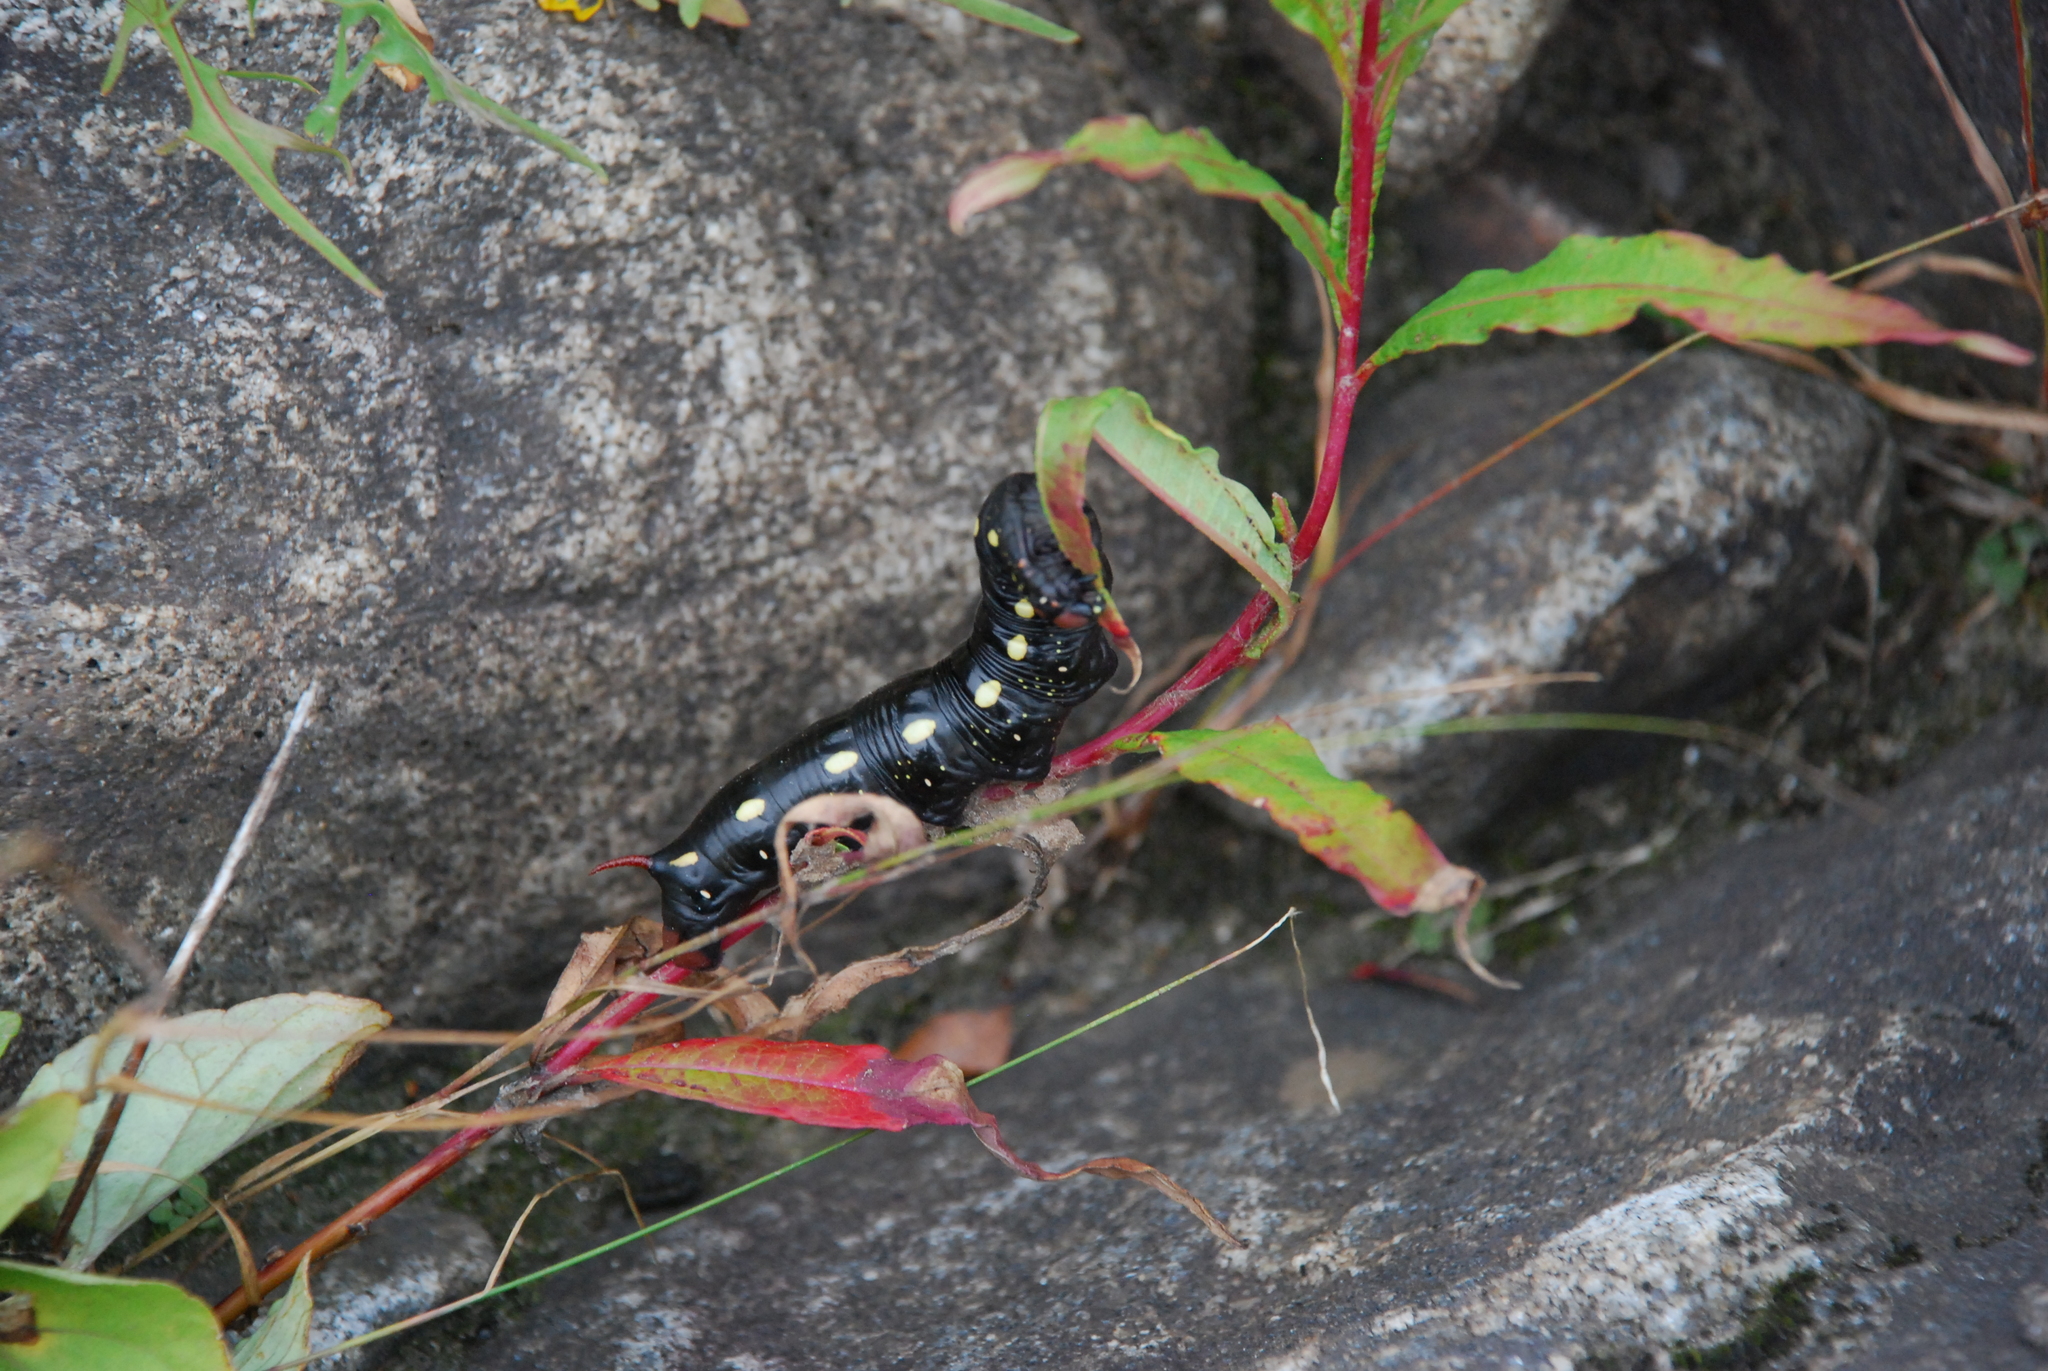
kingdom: Animalia
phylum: Arthropoda
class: Insecta
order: Lepidoptera
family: Sphingidae
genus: Hyles
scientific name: Hyles gallii
